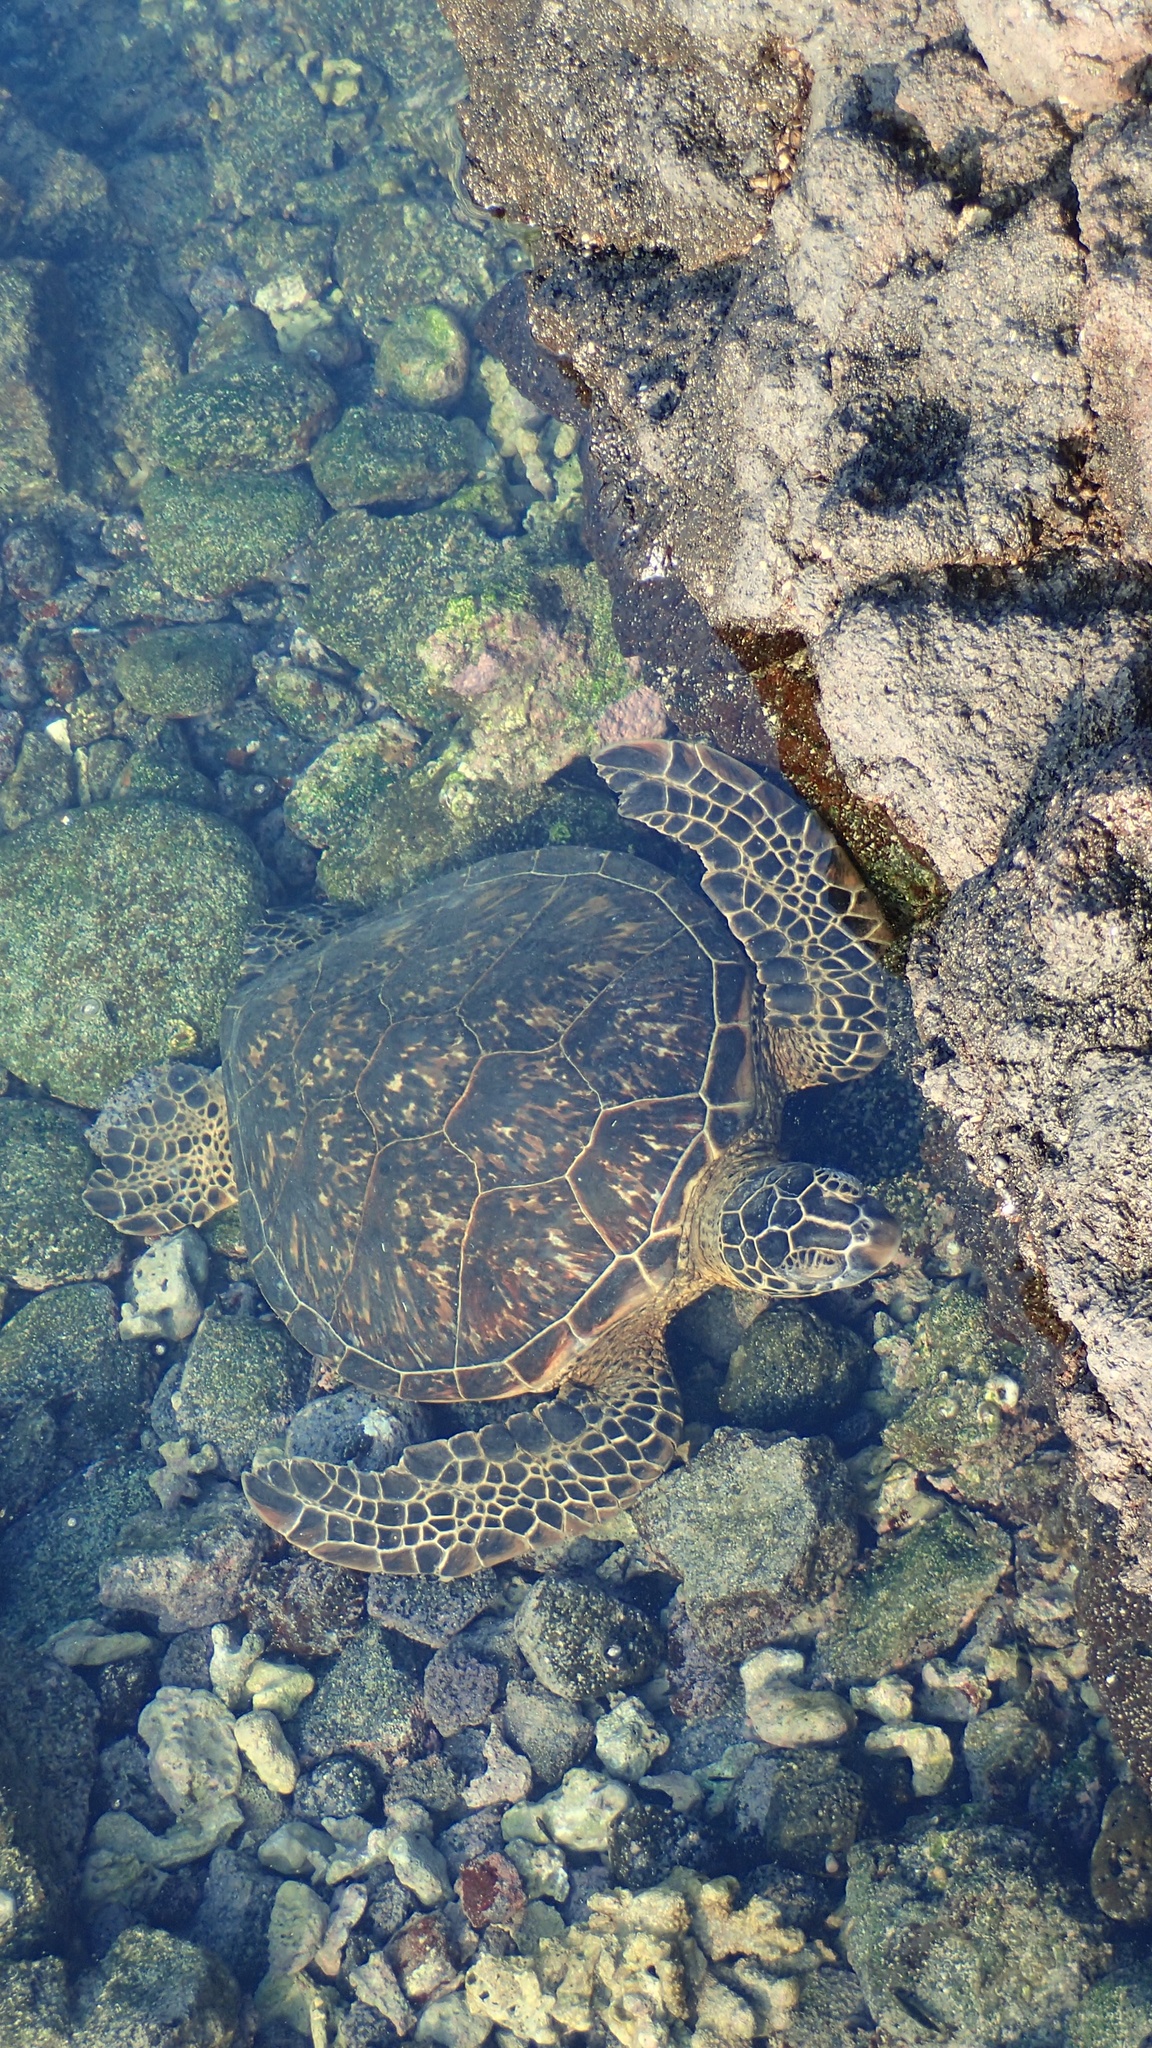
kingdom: Animalia
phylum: Chordata
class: Testudines
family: Cheloniidae
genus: Chelonia
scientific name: Chelonia mydas
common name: Green turtle
